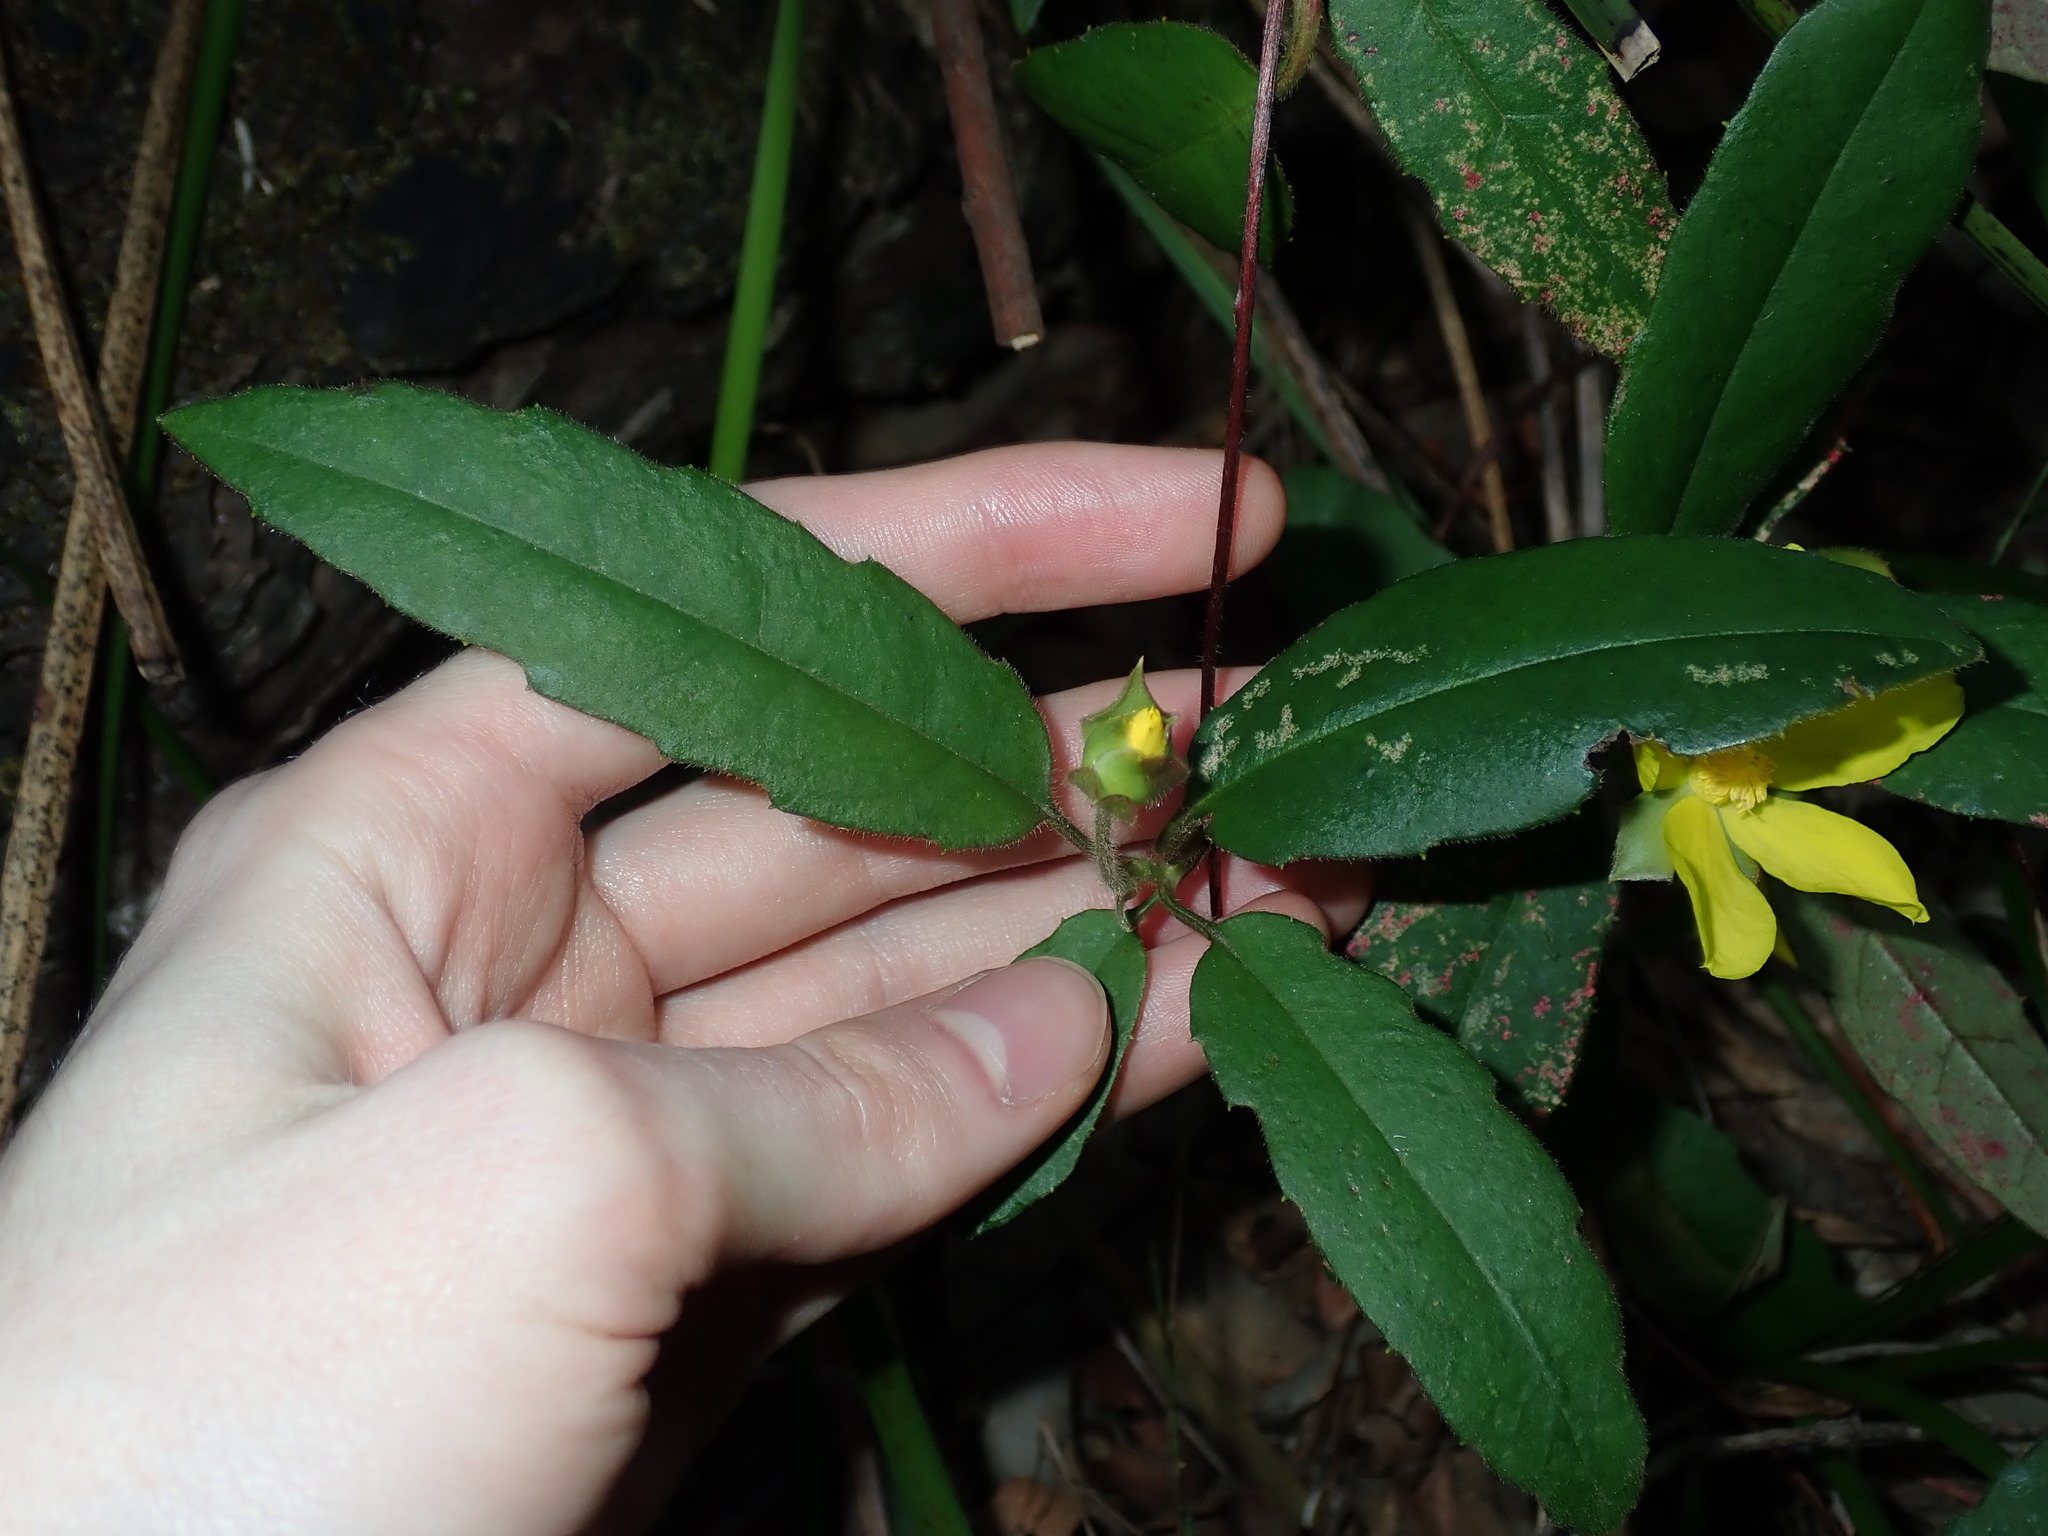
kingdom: Plantae
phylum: Tracheophyta
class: Magnoliopsida
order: Dilleniales
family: Dilleniaceae
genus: Hibbertia
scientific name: Hibbertia dentata
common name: Trailing guinea-flower
